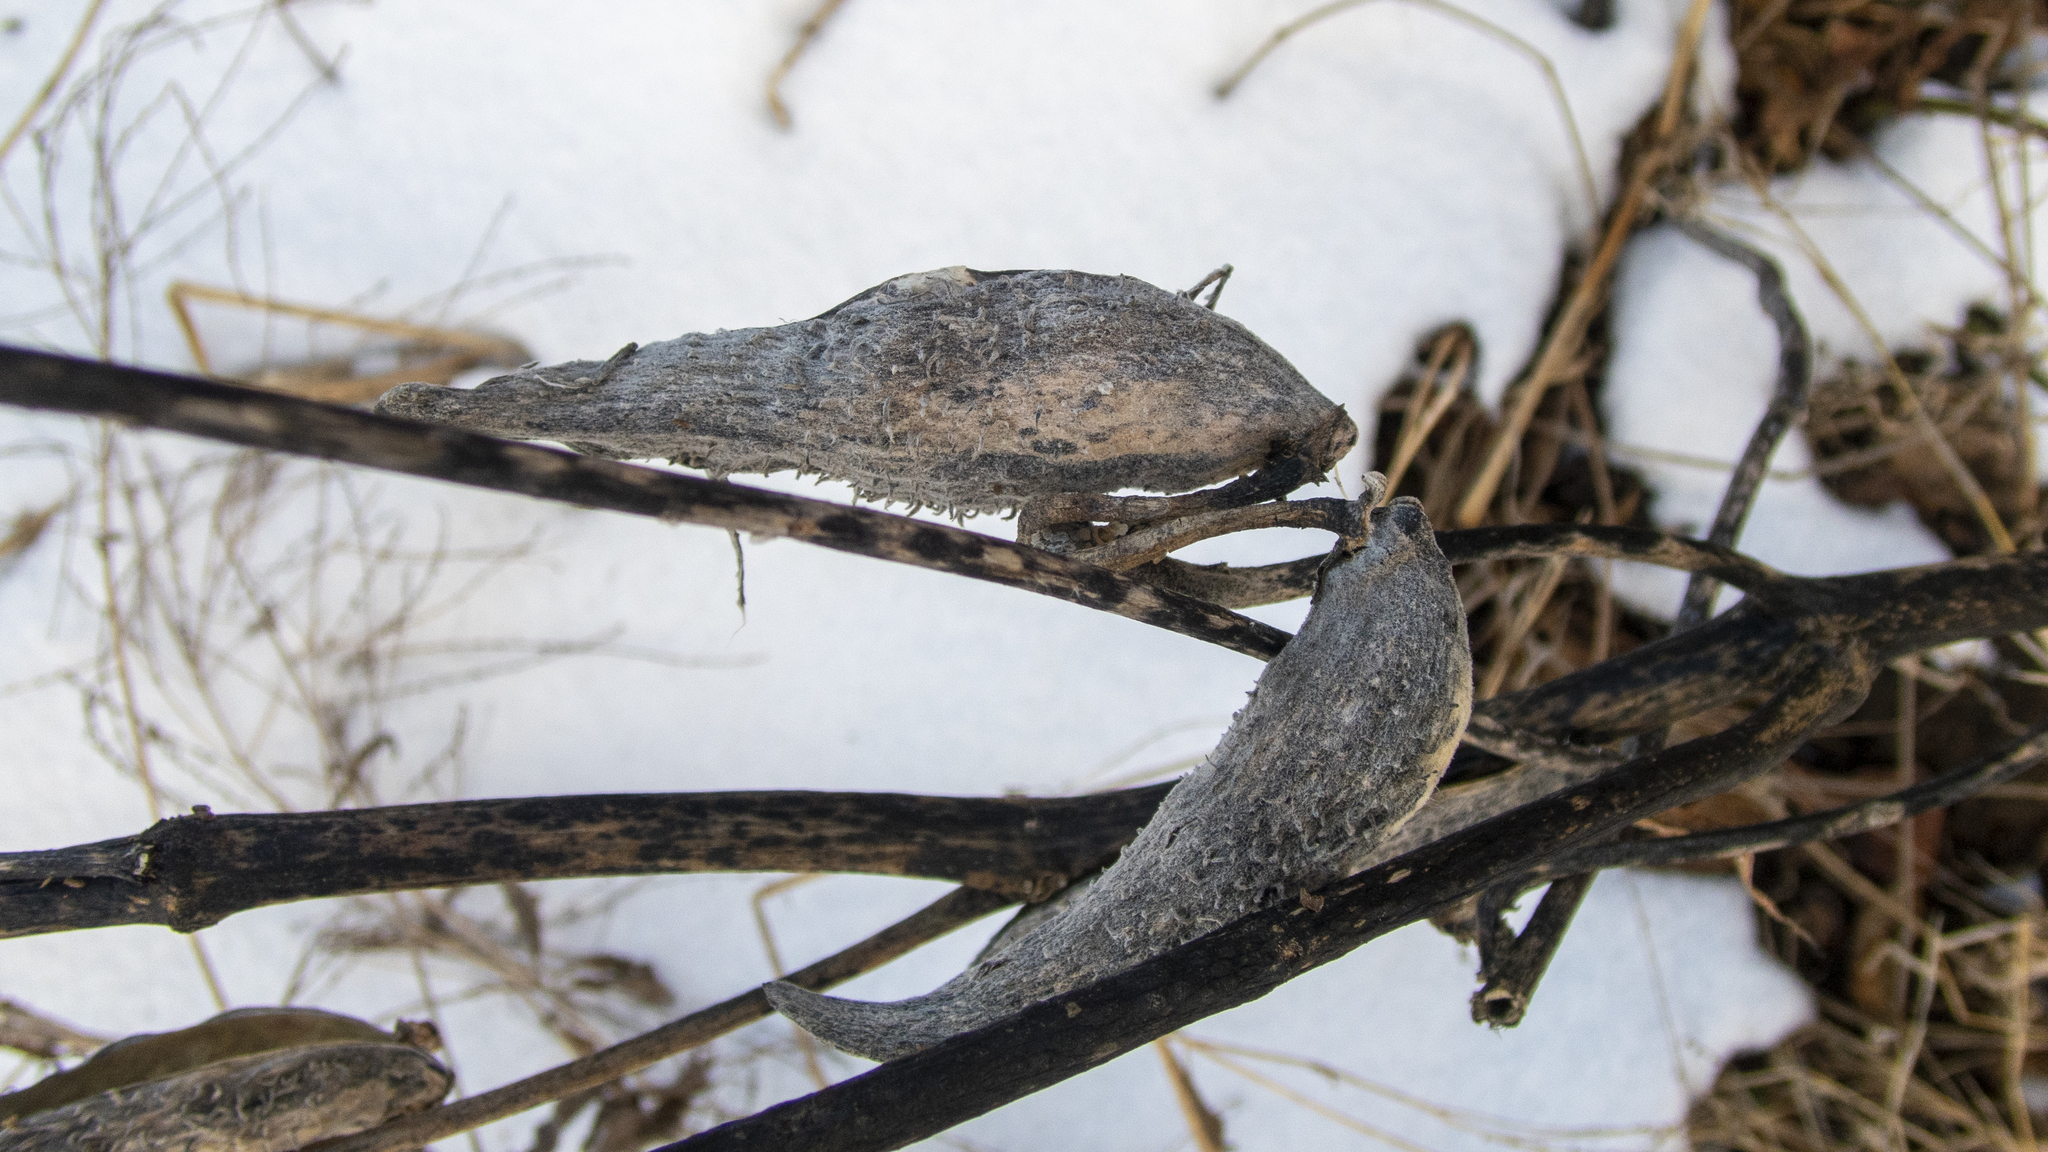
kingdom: Plantae
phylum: Tracheophyta
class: Magnoliopsida
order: Gentianales
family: Apocynaceae
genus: Asclepias
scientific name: Asclepias syriaca
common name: Common milkweed
